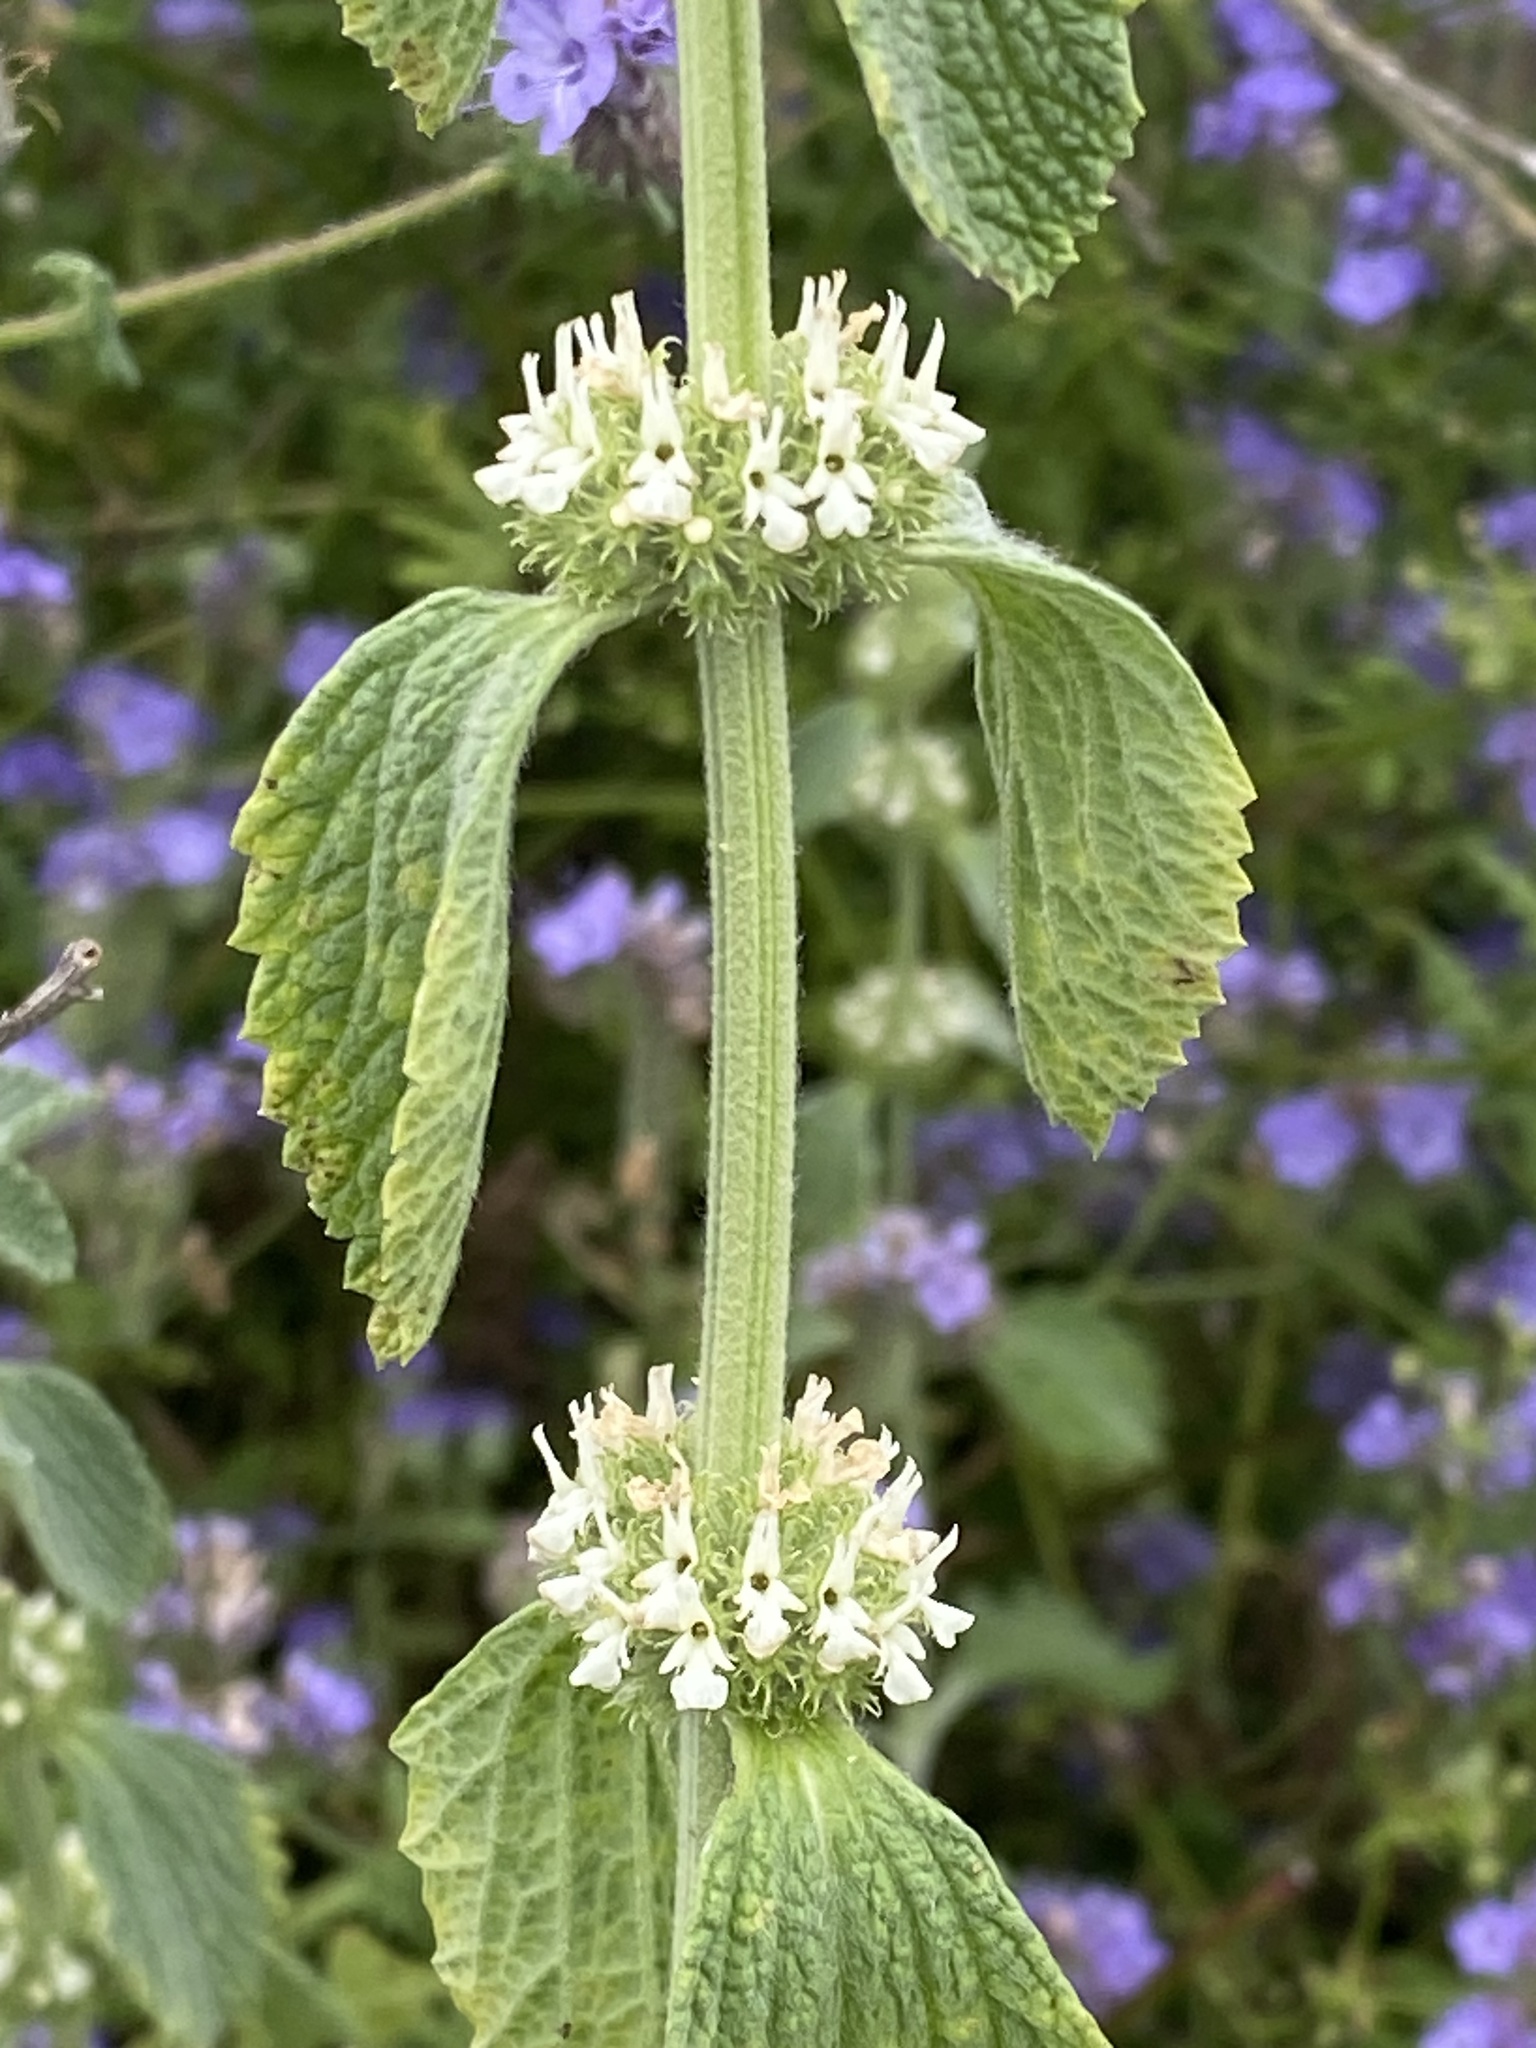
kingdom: Plantae
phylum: Tracheophyta
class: Magnoliopsida
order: Lamiales
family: Lamiaceae
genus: Marrubium
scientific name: Marrubium vulgare
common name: Horehound
